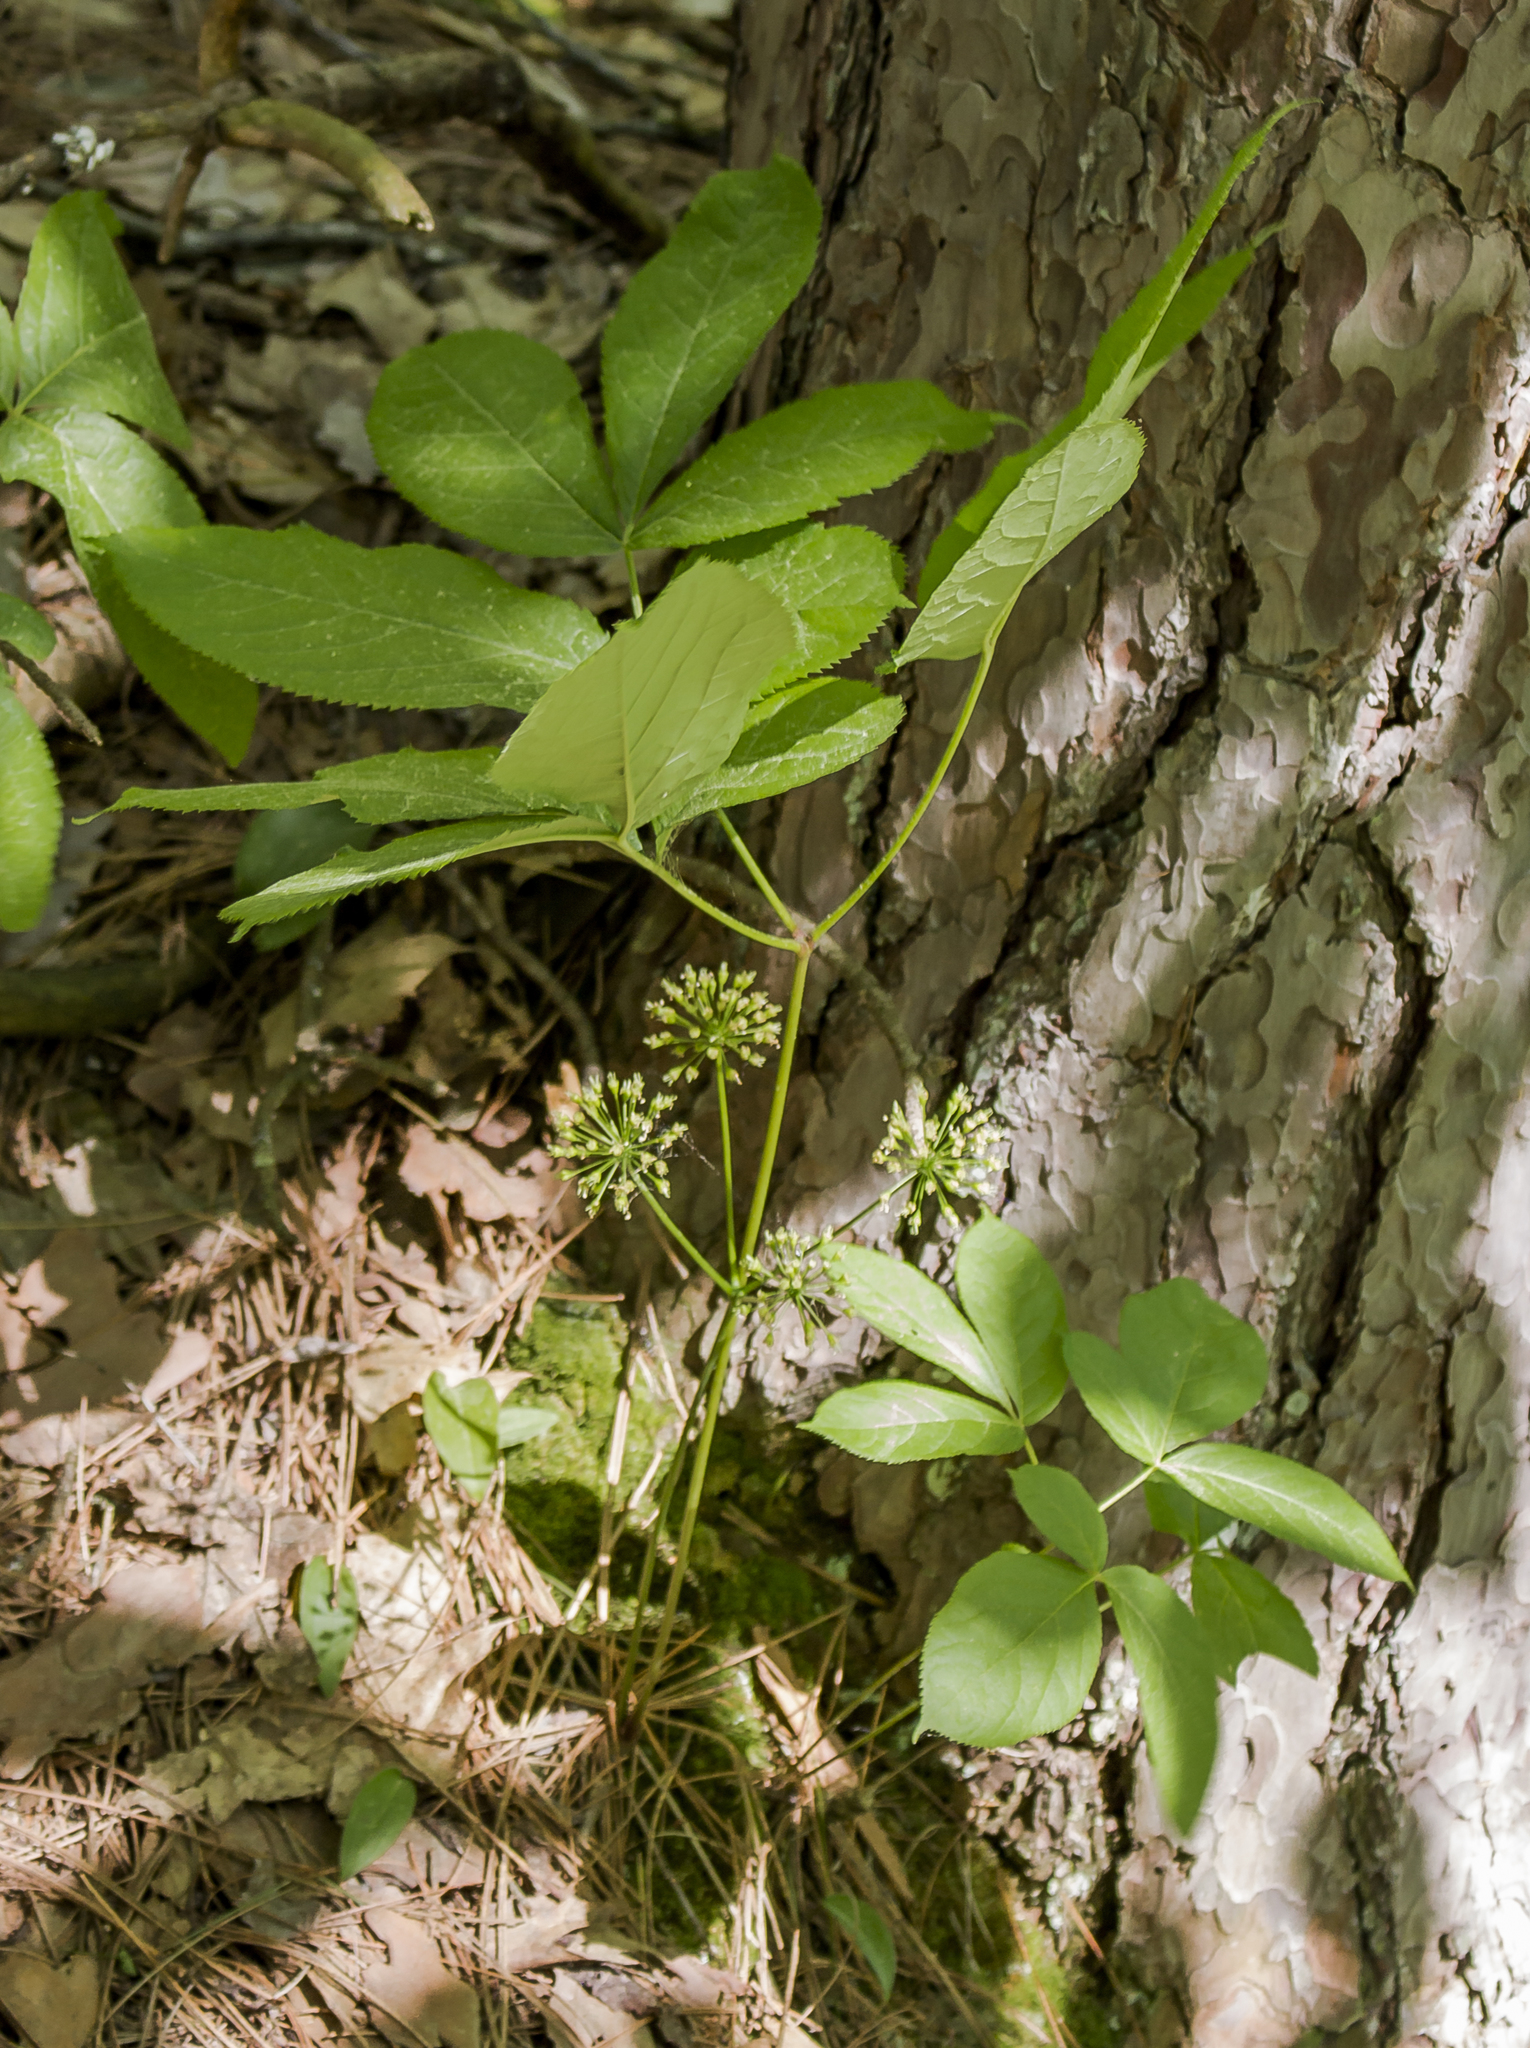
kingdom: Plantae
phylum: Tracheophyta
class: Magnoliopsida
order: Apiales
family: Araliaceae
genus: Aralia
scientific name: Aralia nudicaulis
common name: Wild sarsaparilla
